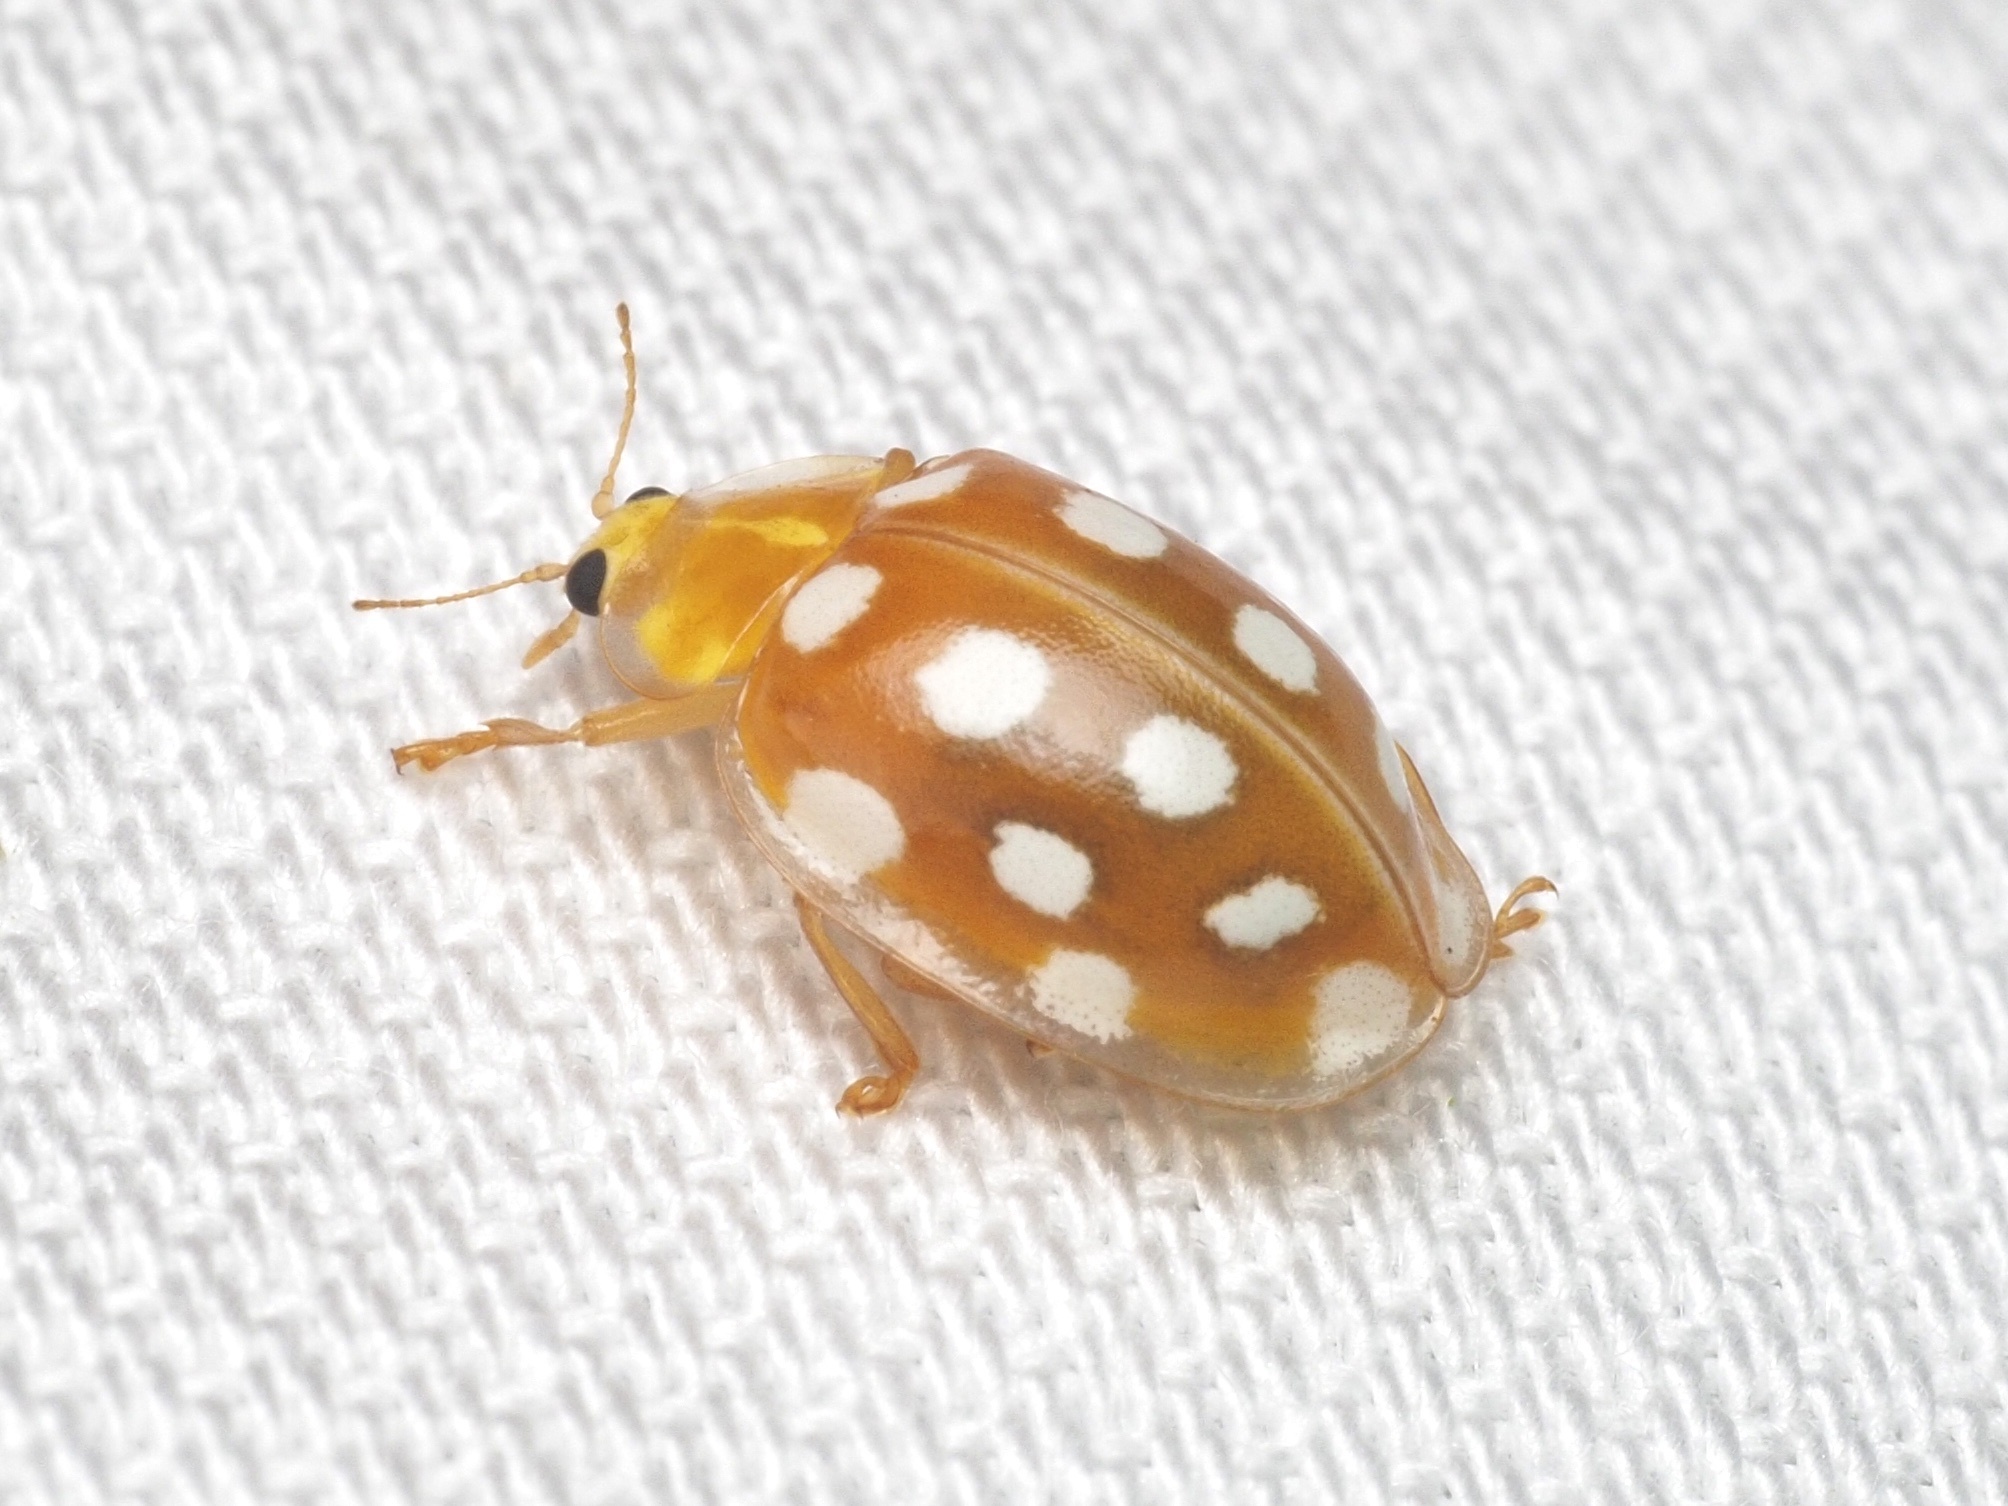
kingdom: Animalia
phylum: Arthropoda
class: Insecta
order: Coleoptera
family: Coccinellidae
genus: Halyzia
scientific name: Halyzia sedecimguttata
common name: Orange ladybird
